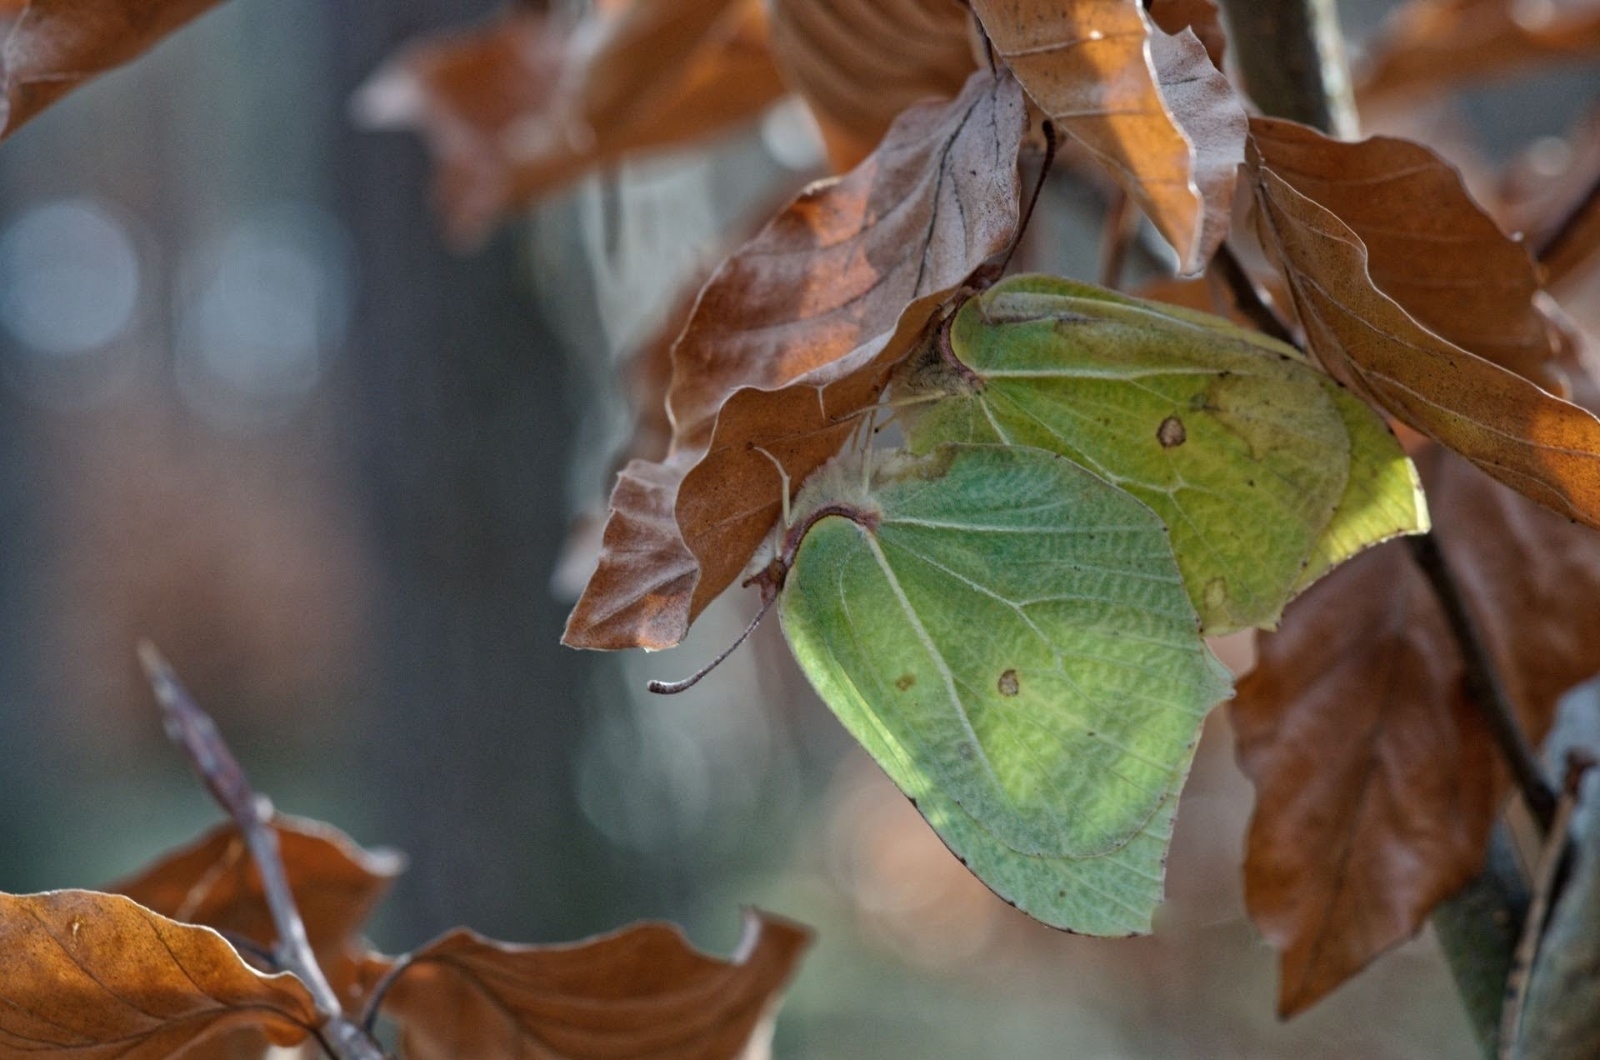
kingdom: Animalia
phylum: Arthropoda
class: Insecta
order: Lepidoptera
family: Pieridae
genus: Gonepteryx
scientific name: Gonepteryx rhamni
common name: Brimstone
